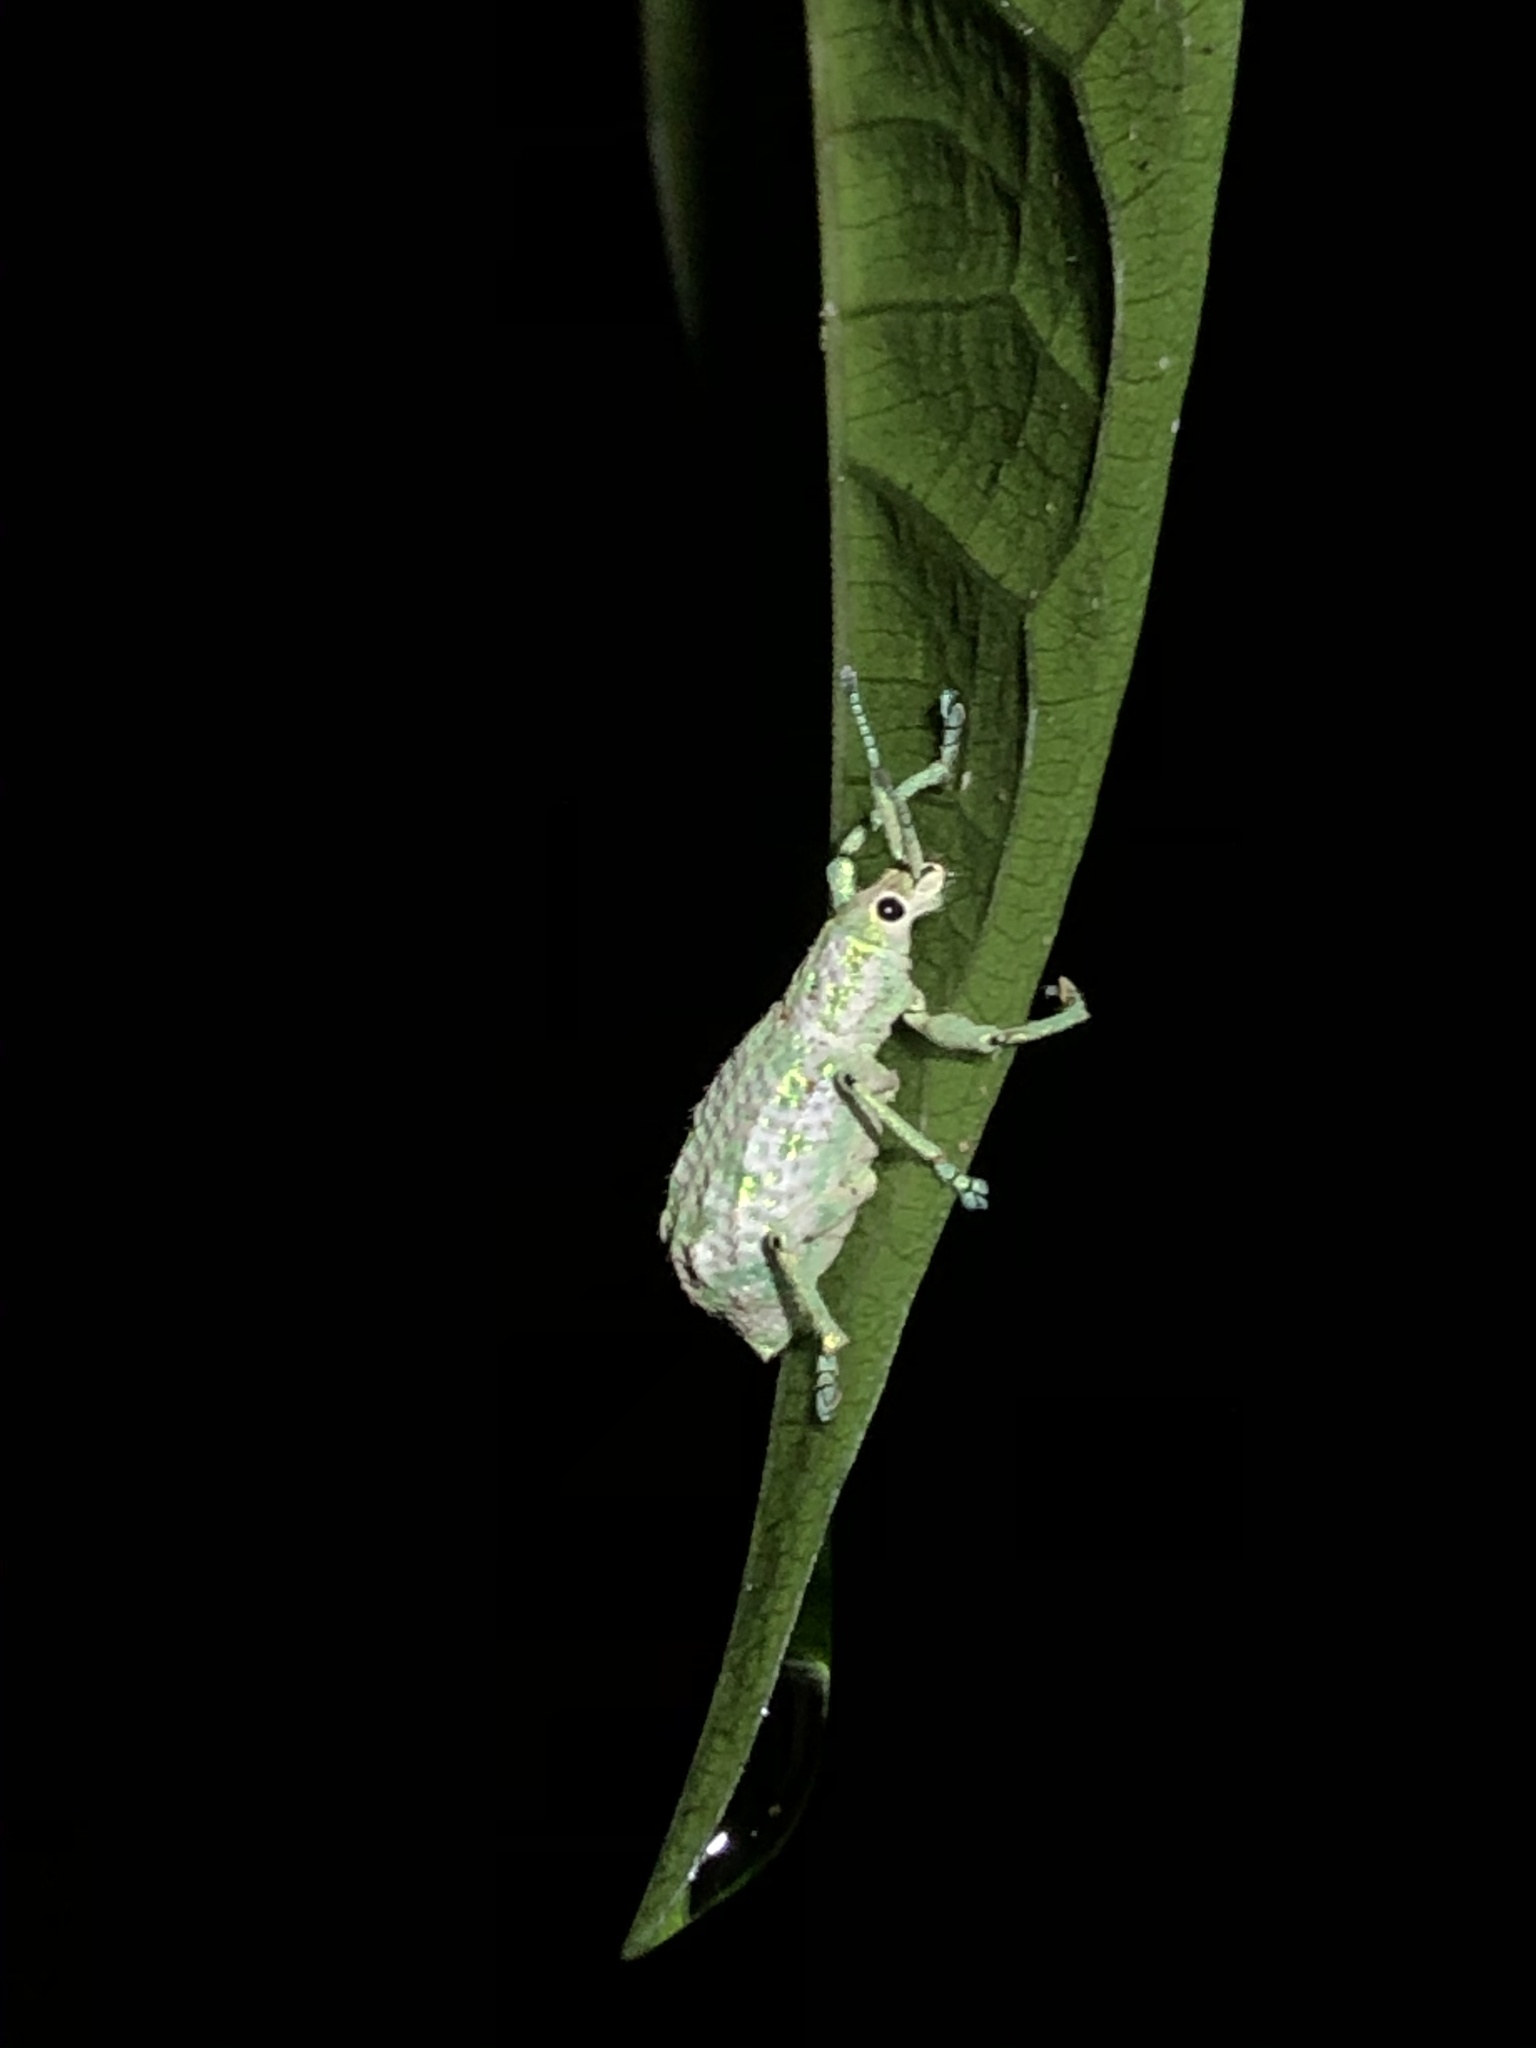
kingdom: Animalia
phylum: Arthropoda
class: Insecta
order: Coleoptera
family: Curculionidae
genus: Compsus
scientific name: Compsus argyreus
